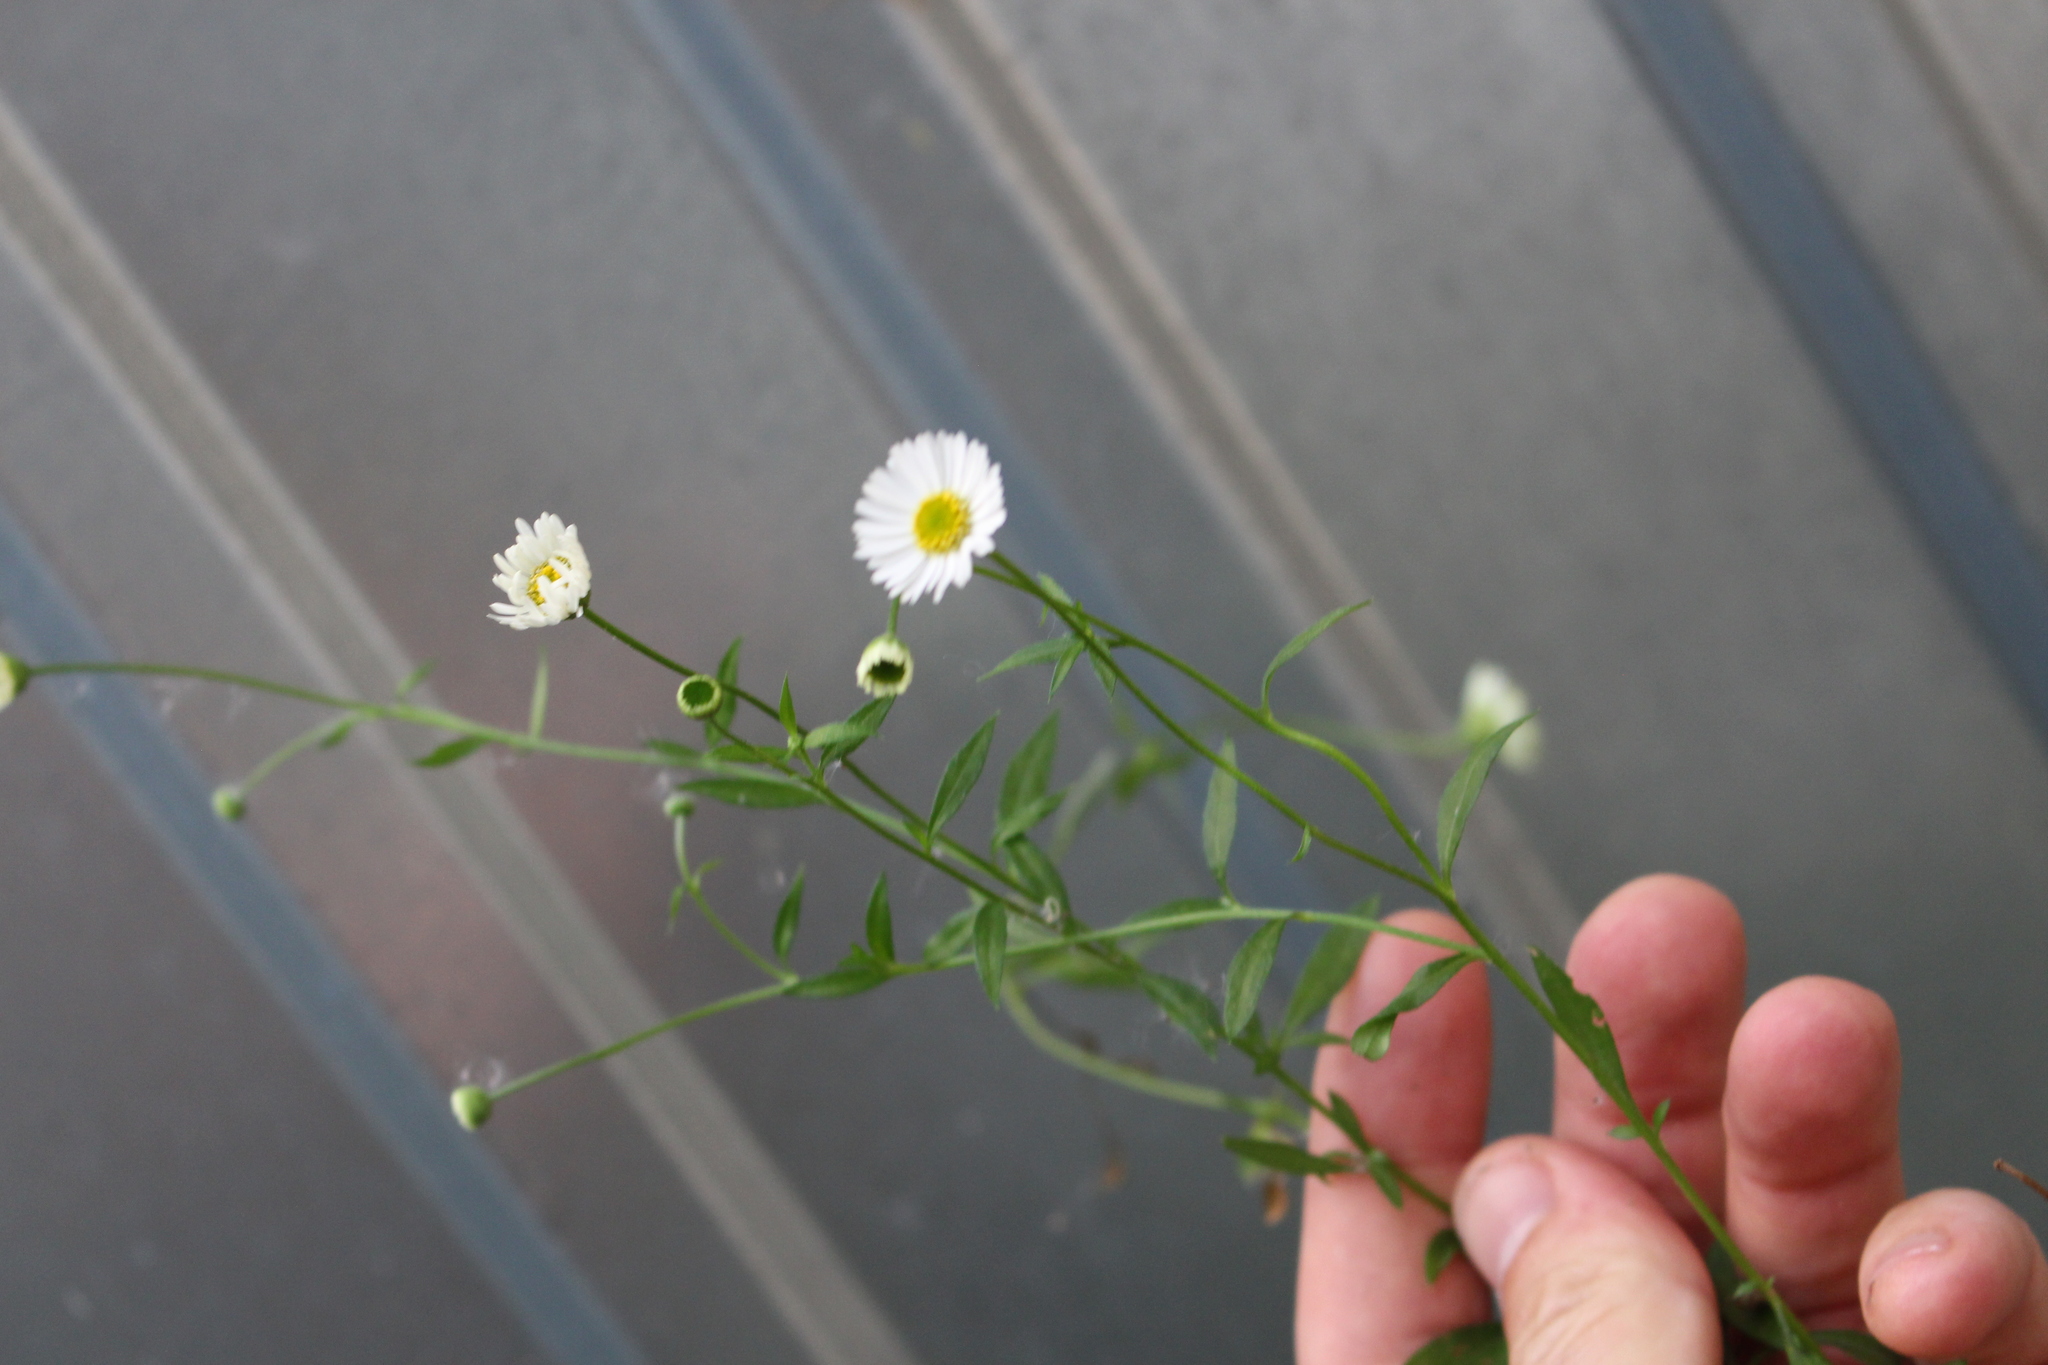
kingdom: Plantae
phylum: Tracheophyta
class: Magnoliopsida
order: Asterales
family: Asteraceae
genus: Erigeron
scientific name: Erigeron karvinskianus
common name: Mexican fleabane
